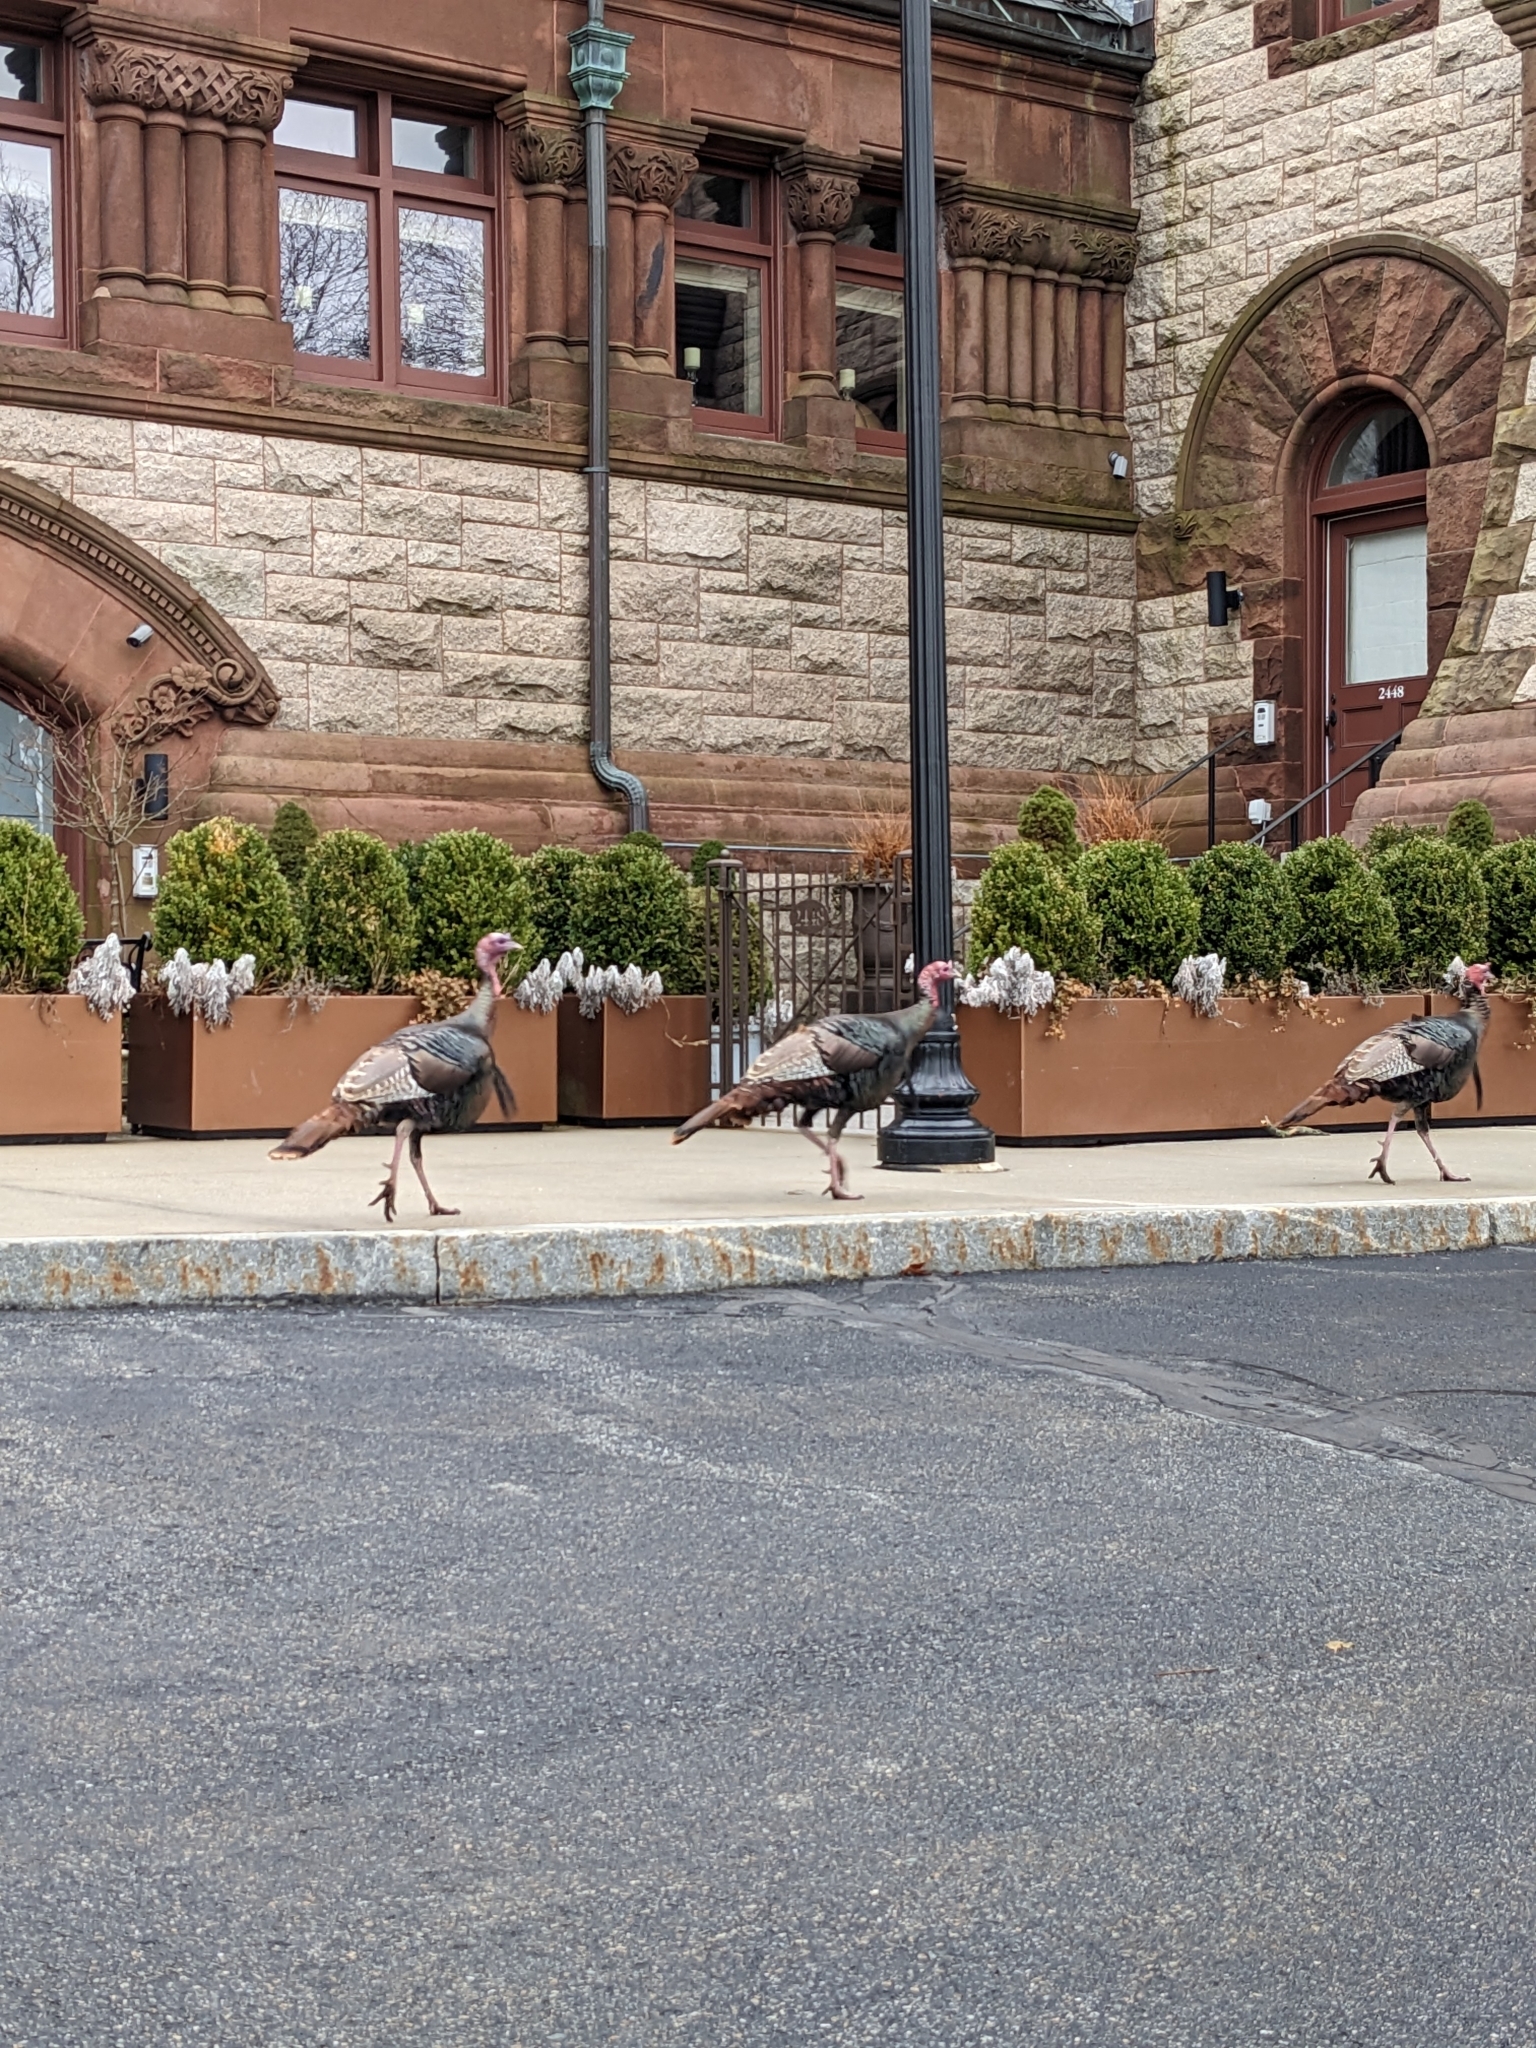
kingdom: Animalia
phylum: Chordata
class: Aves
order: Galliformes
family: Phasianidae
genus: Meleagris
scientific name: Meleagris gallopavo
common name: Wild turkey
